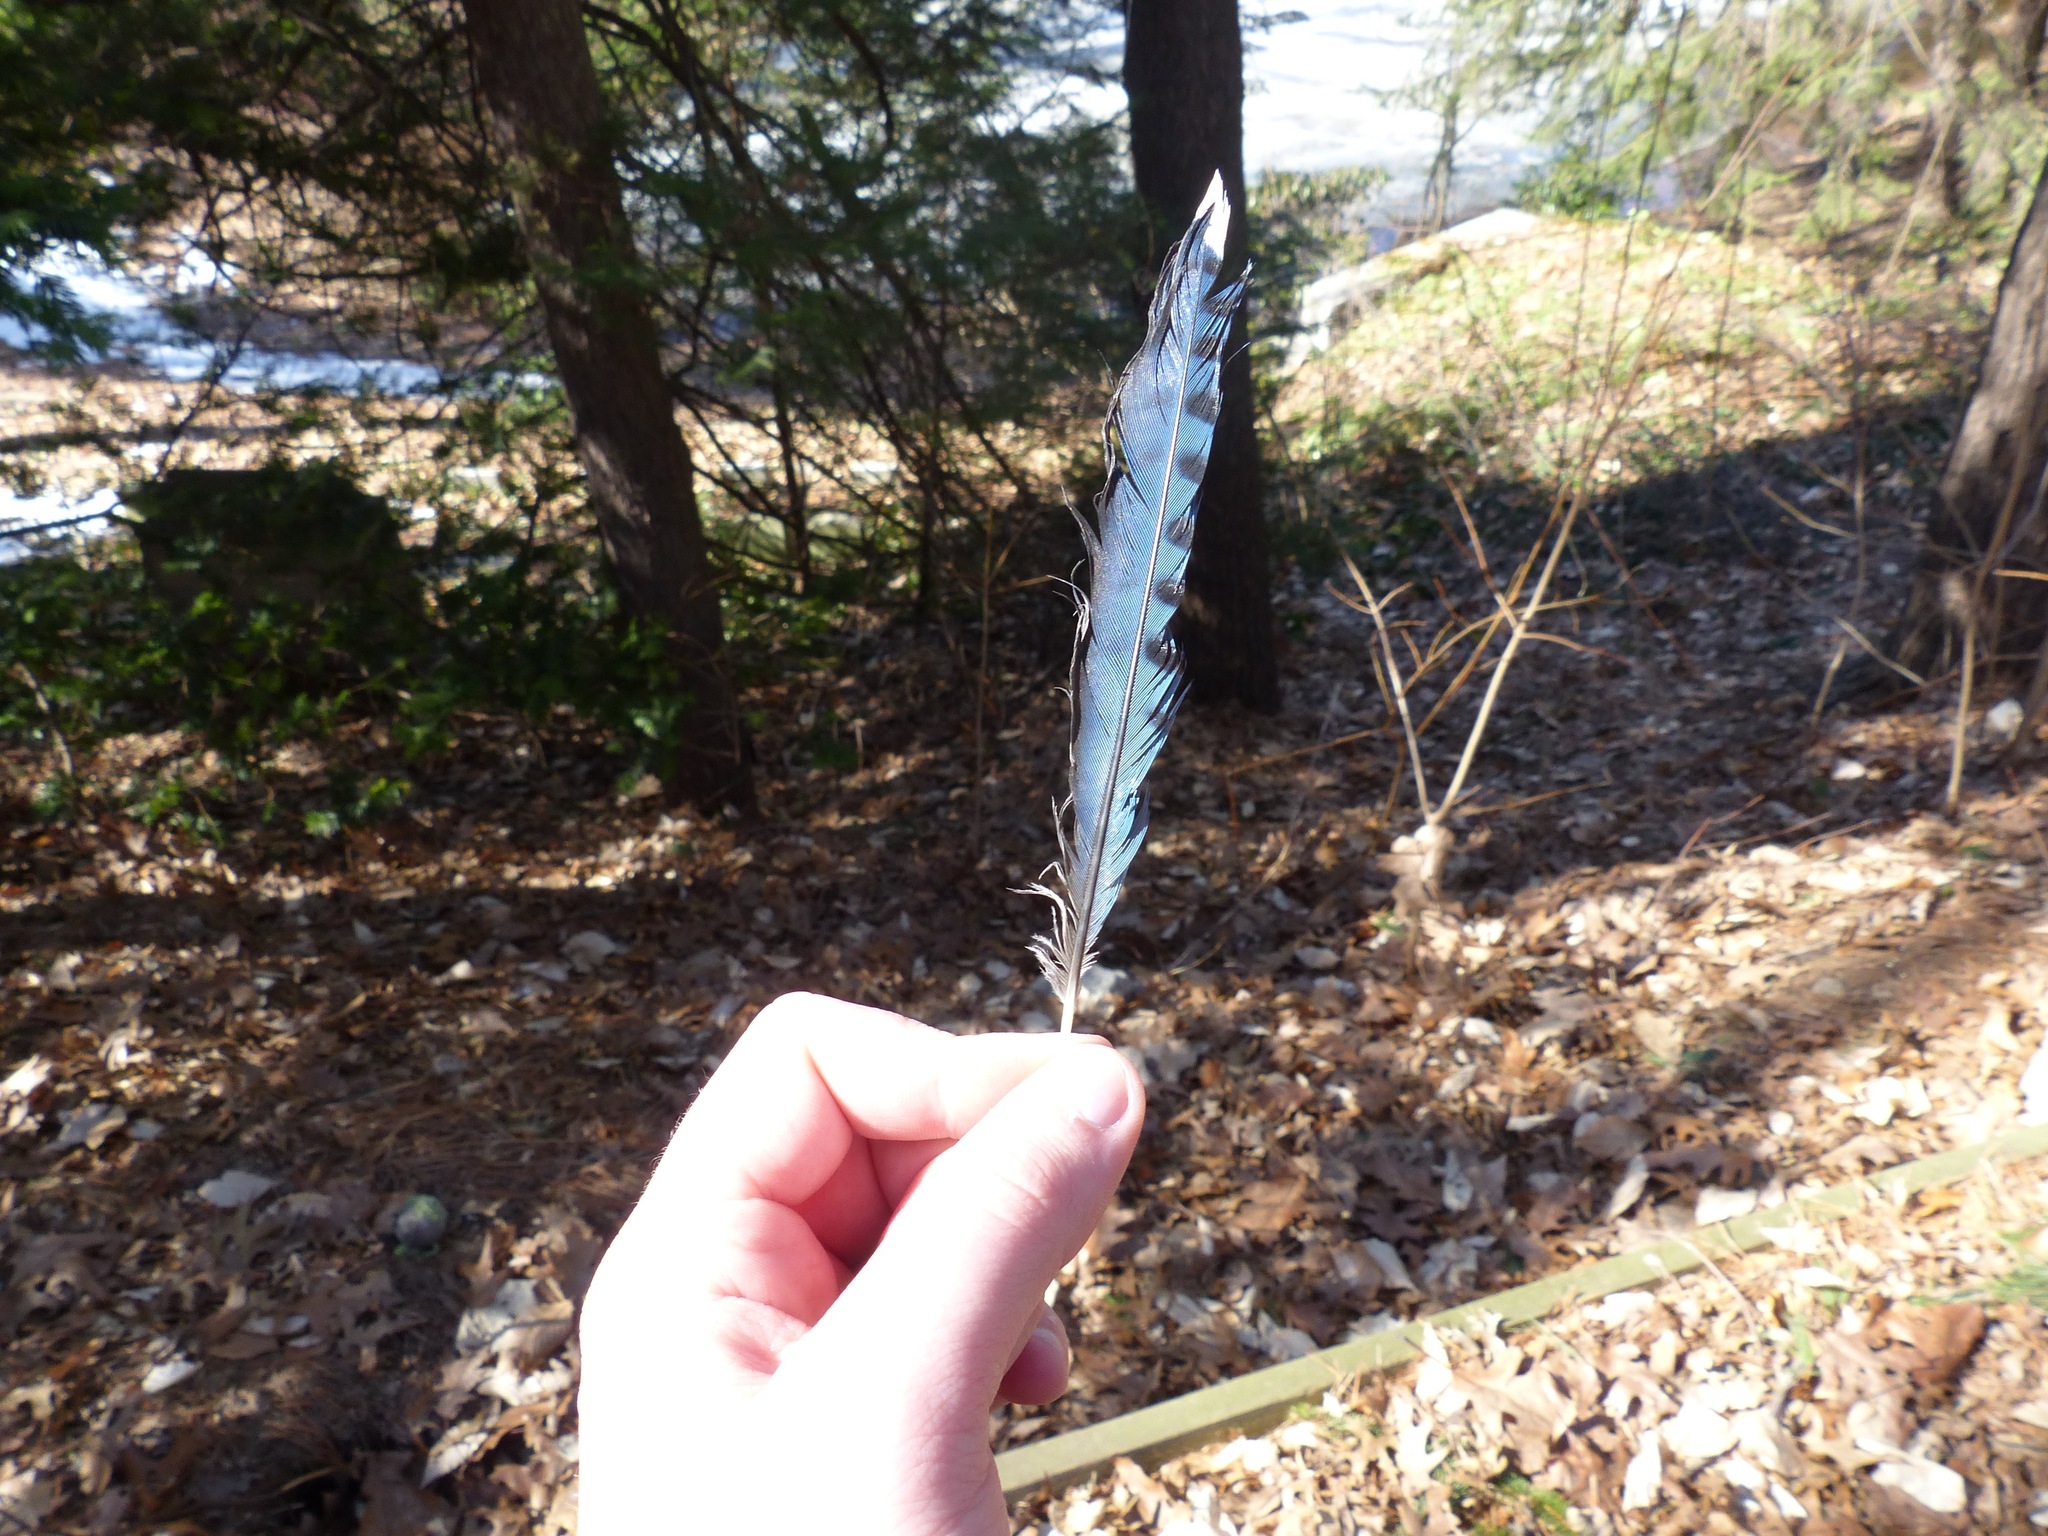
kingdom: Animalia
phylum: Chordata
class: Aves
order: Passeriformes
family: Corvidae
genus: Cyanocitta
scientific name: Cyanocitta cristata
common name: Blue jay
